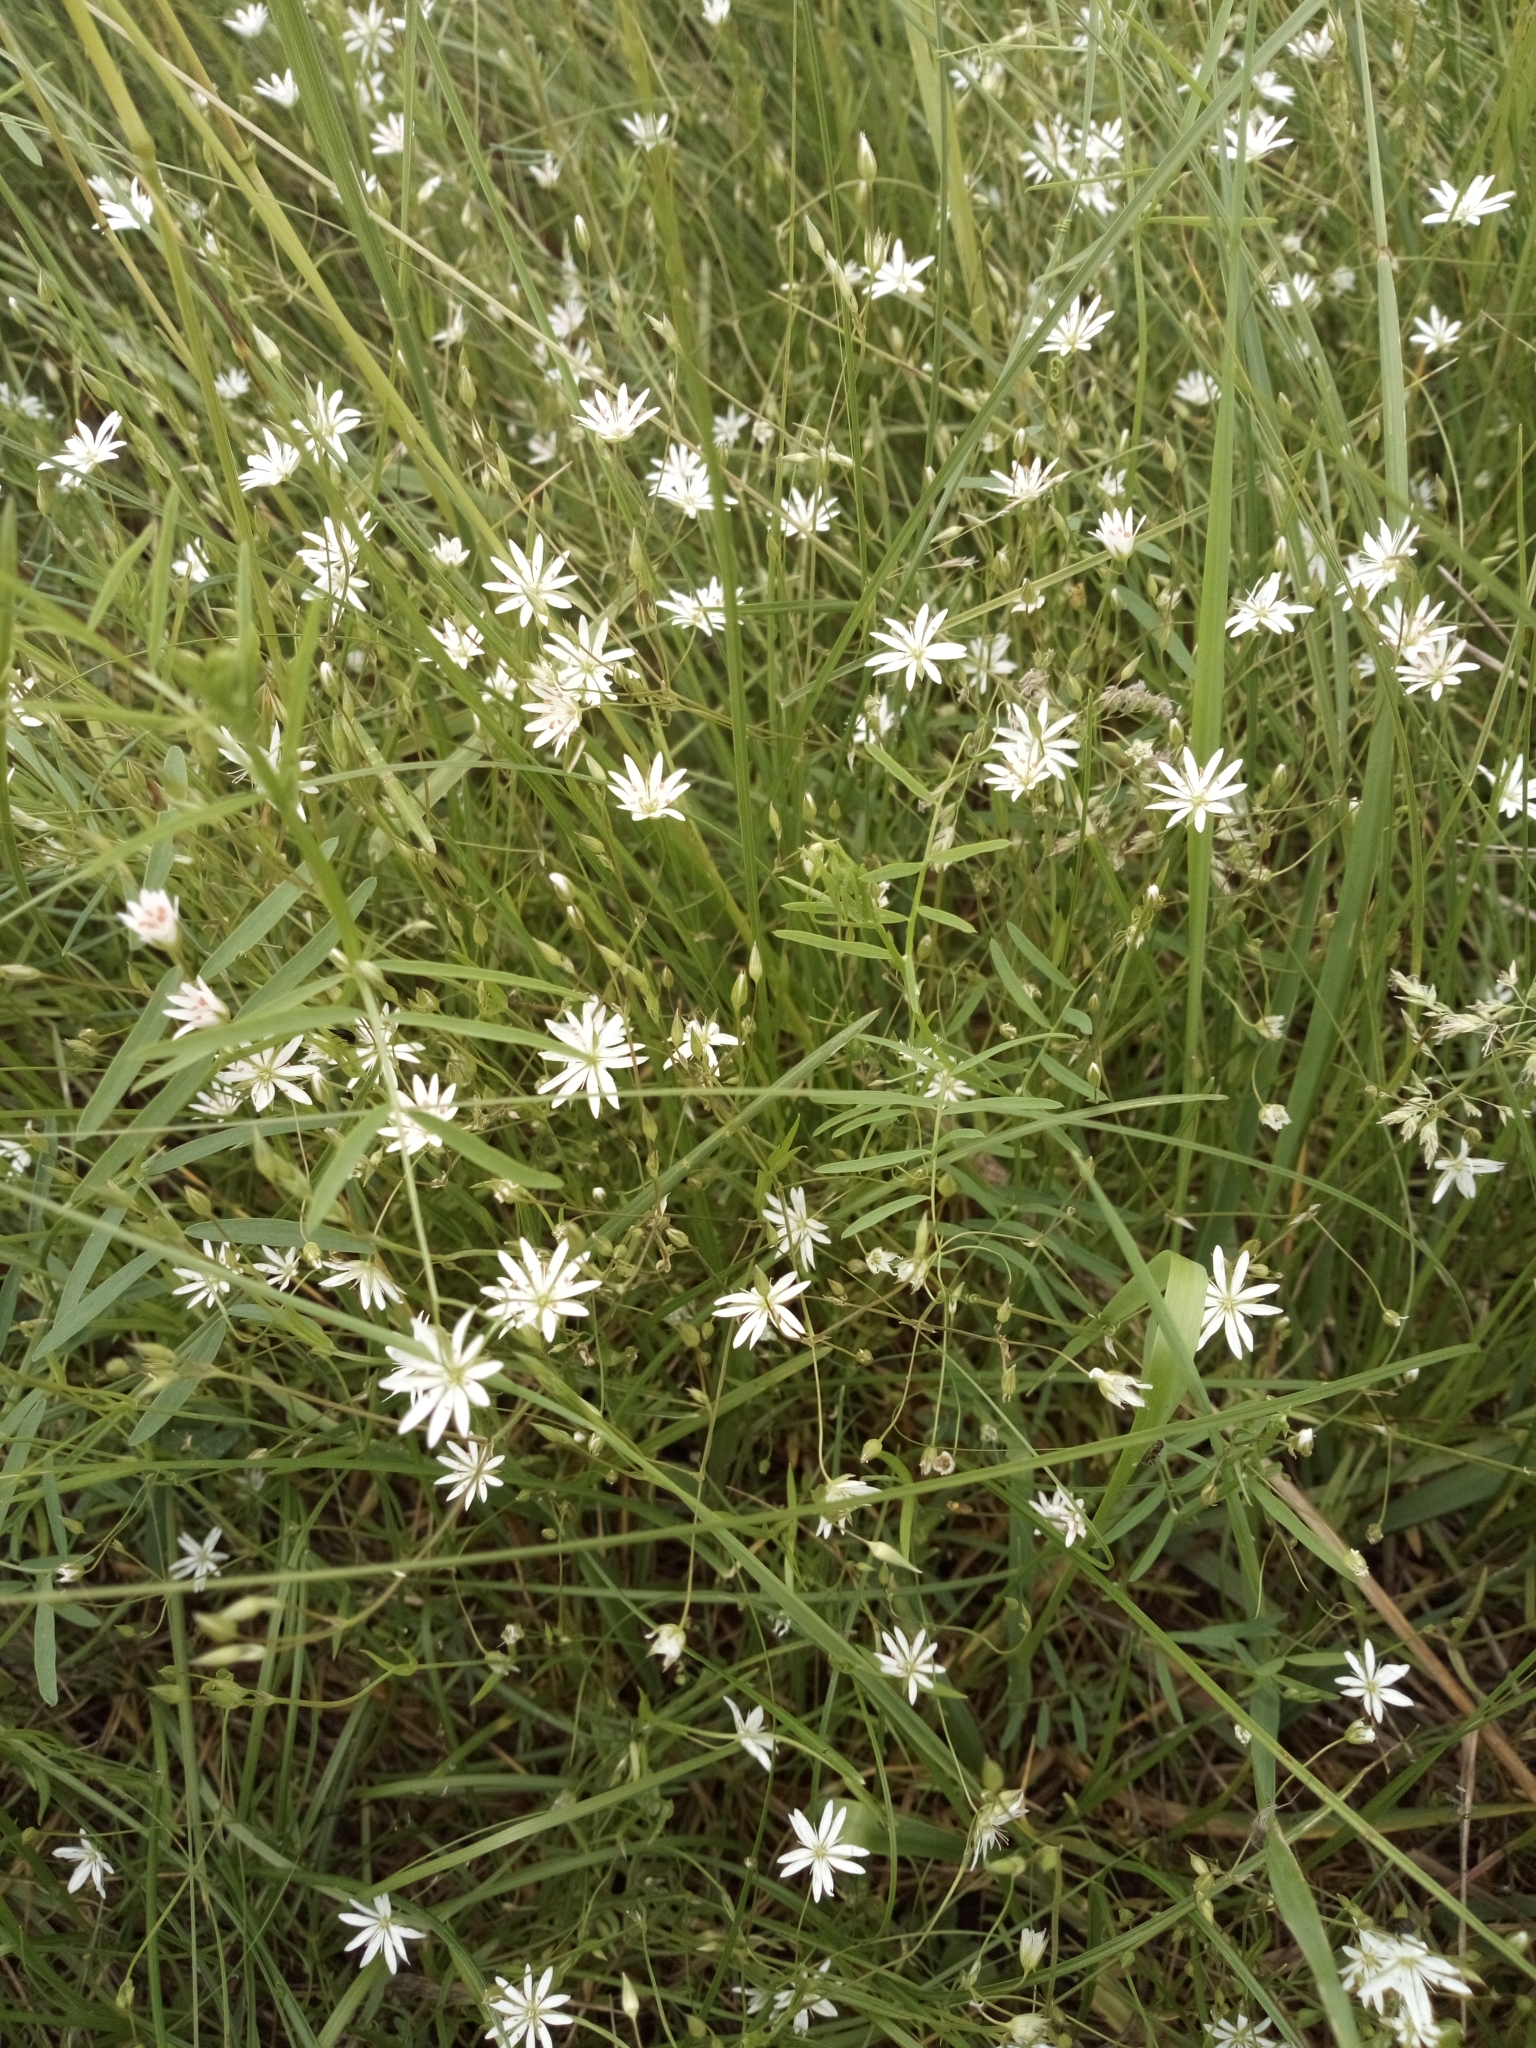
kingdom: Plantae
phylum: Tracheophyta
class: Magnoliopsida
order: Caryophyllales
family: Caryophyllaceae
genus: Stellaria
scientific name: Stellaria graminea
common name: Grass-like starwort
